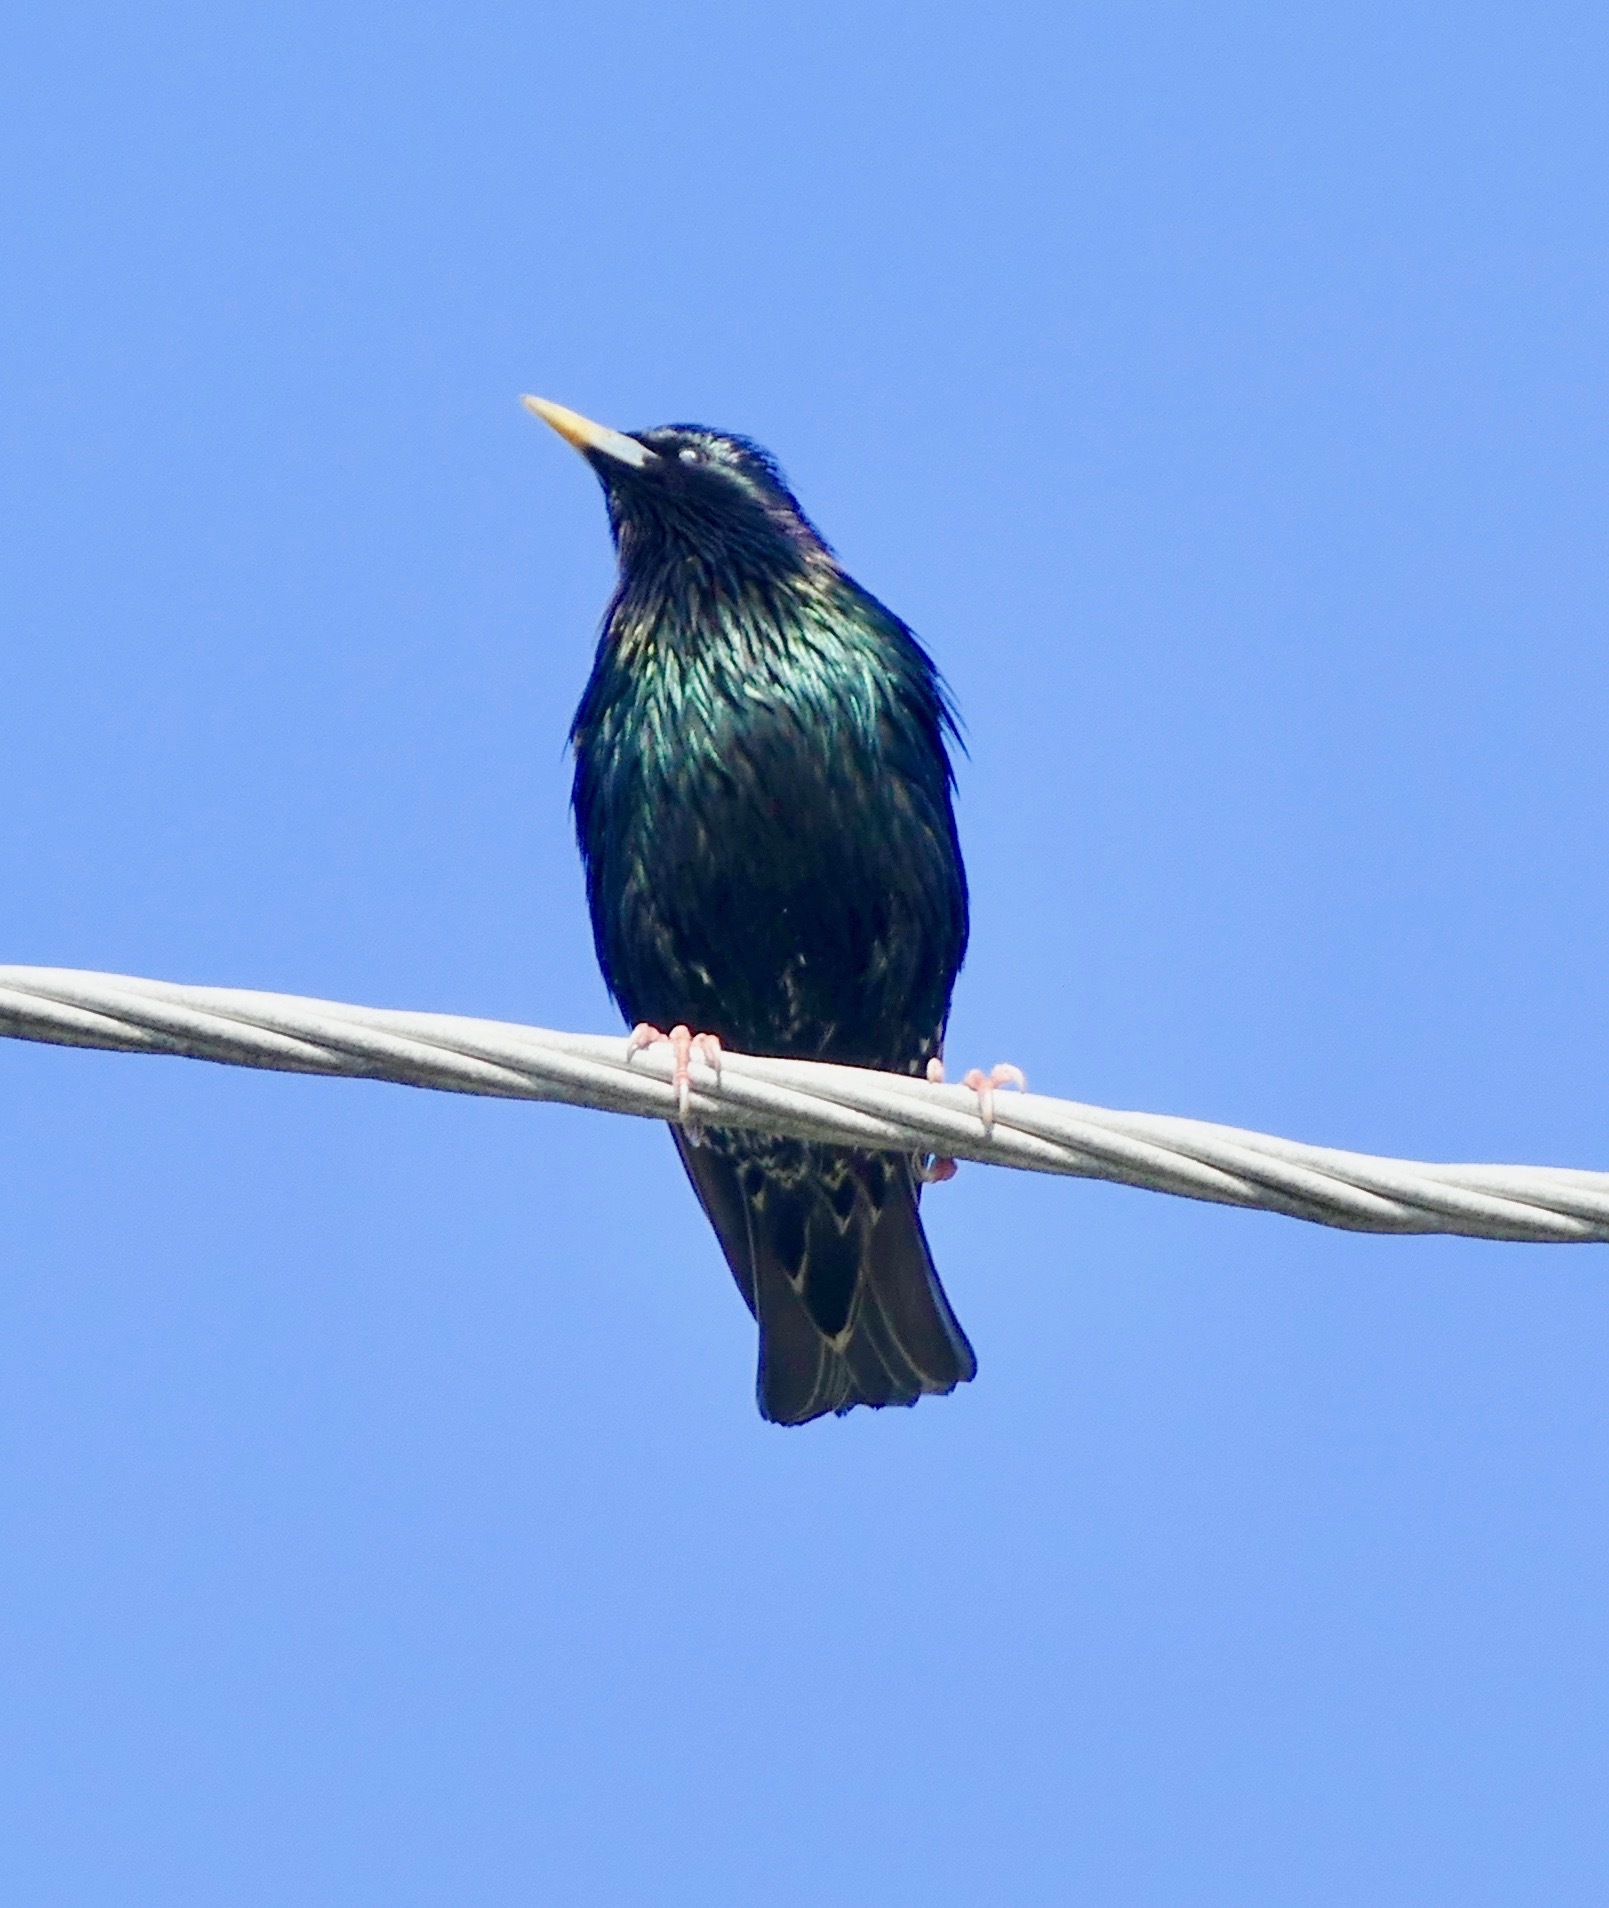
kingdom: Animalia
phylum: Chordata
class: Aves
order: Passeriformes
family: Sturnidae
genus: Sturnus
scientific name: Sturnus vulgaris
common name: Common starling
